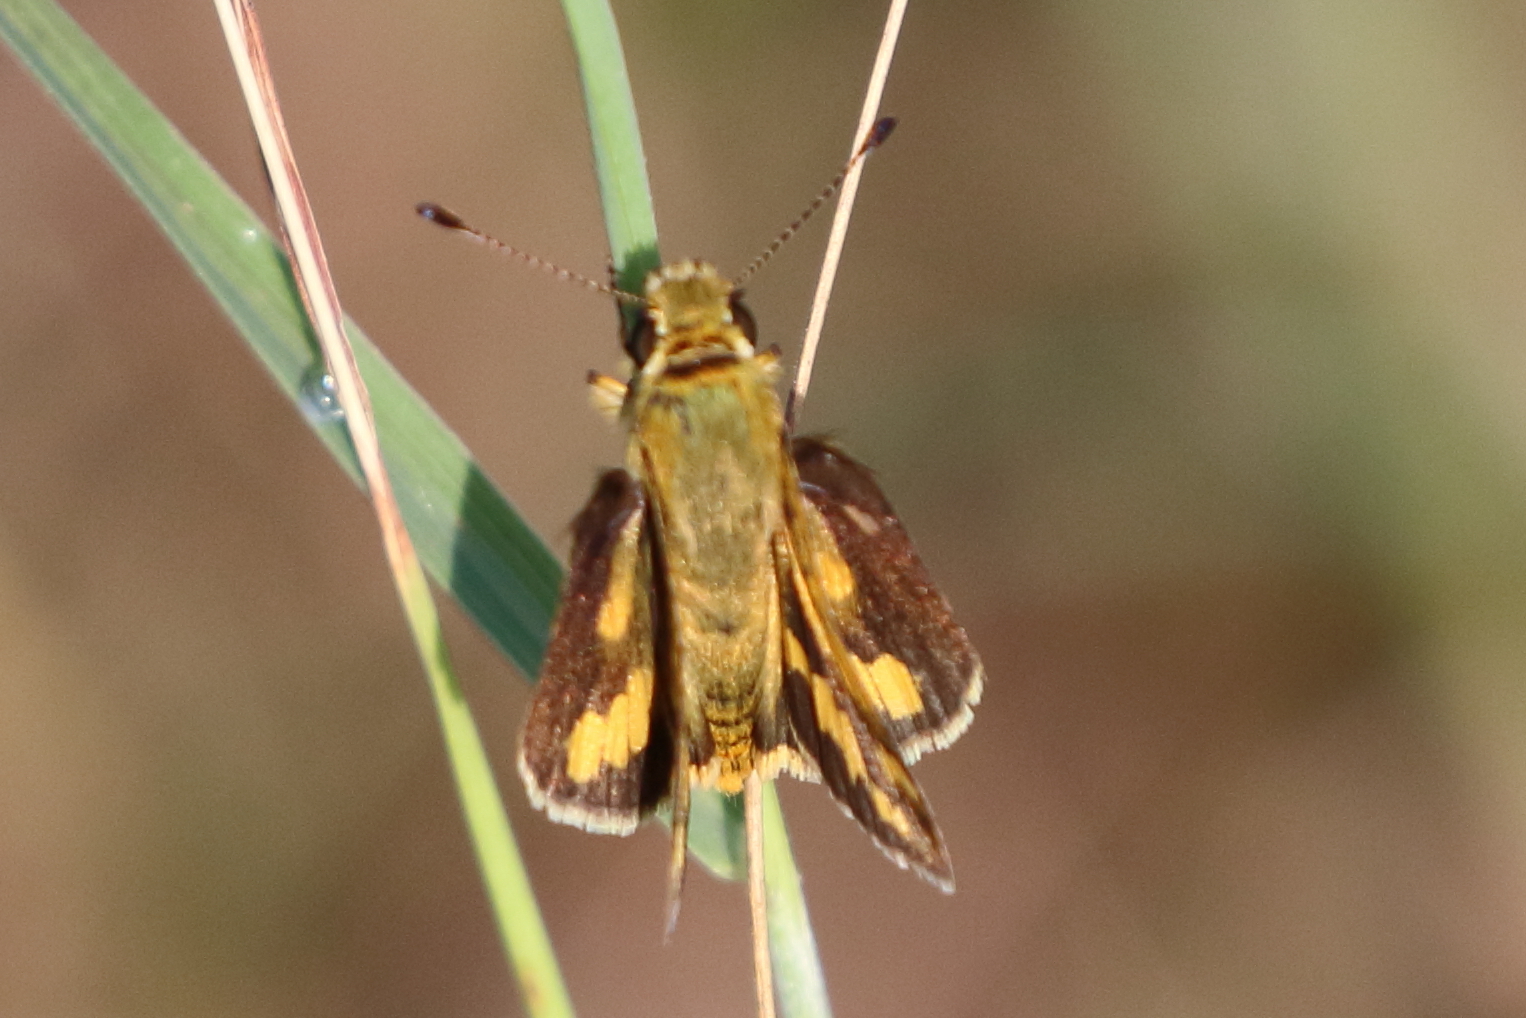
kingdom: Animalia
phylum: Arthropoda
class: Insecta
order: Lepidoptera
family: Hesperiidae
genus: Taractrocera
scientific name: Taractrocera ina
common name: Ina grass-dart
